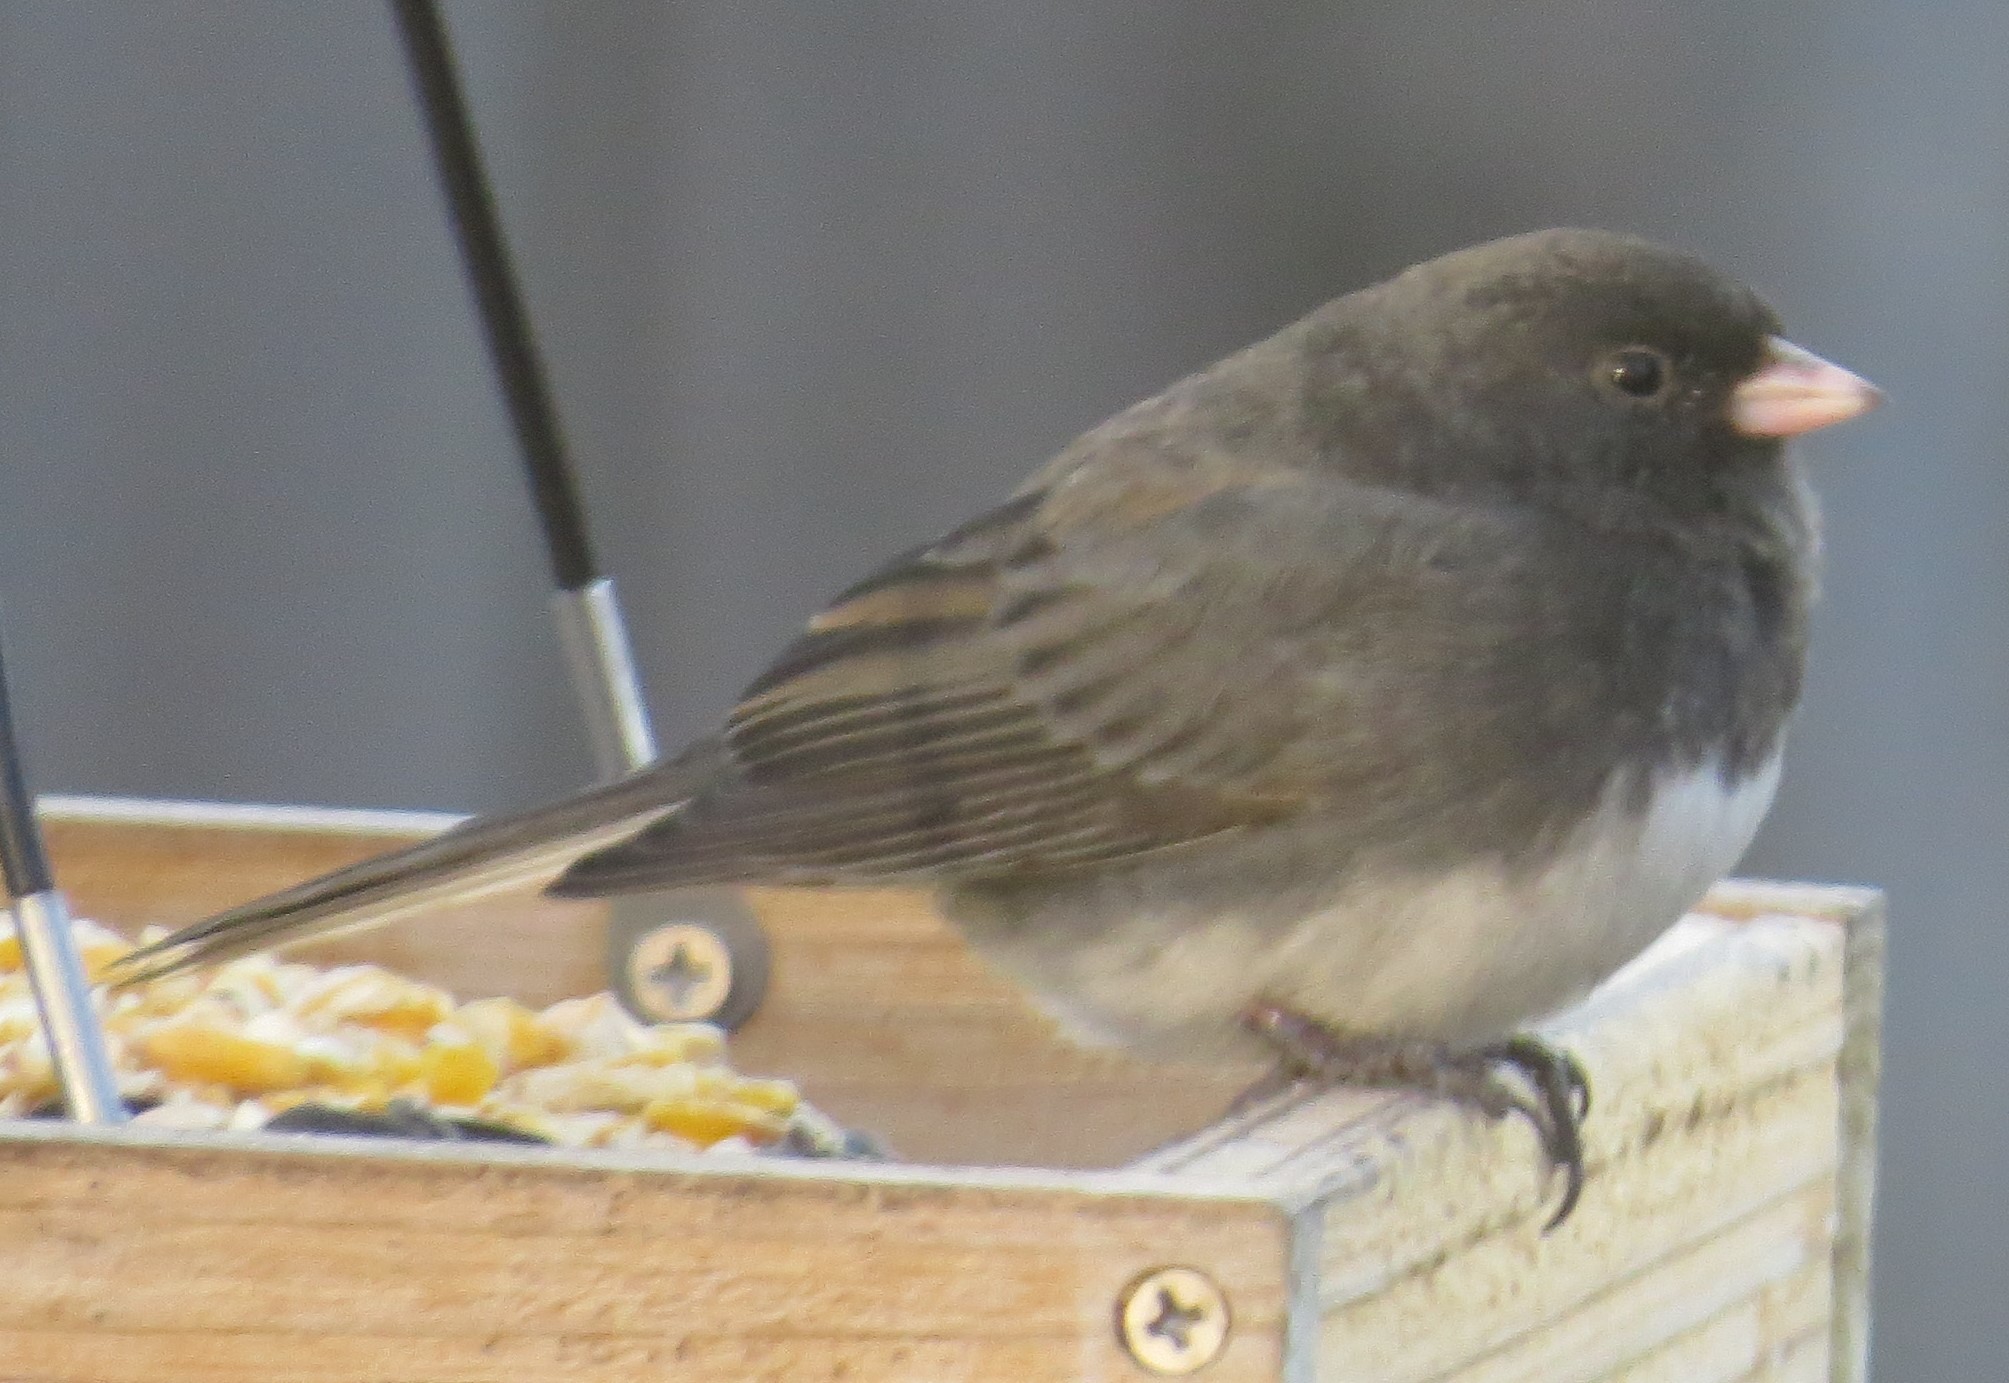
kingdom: Animalia
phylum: Chordata
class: Aves
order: Passeriformes
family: Passerellidae
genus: Junco
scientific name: Junco hyemalis
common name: Dark-eyed junco
